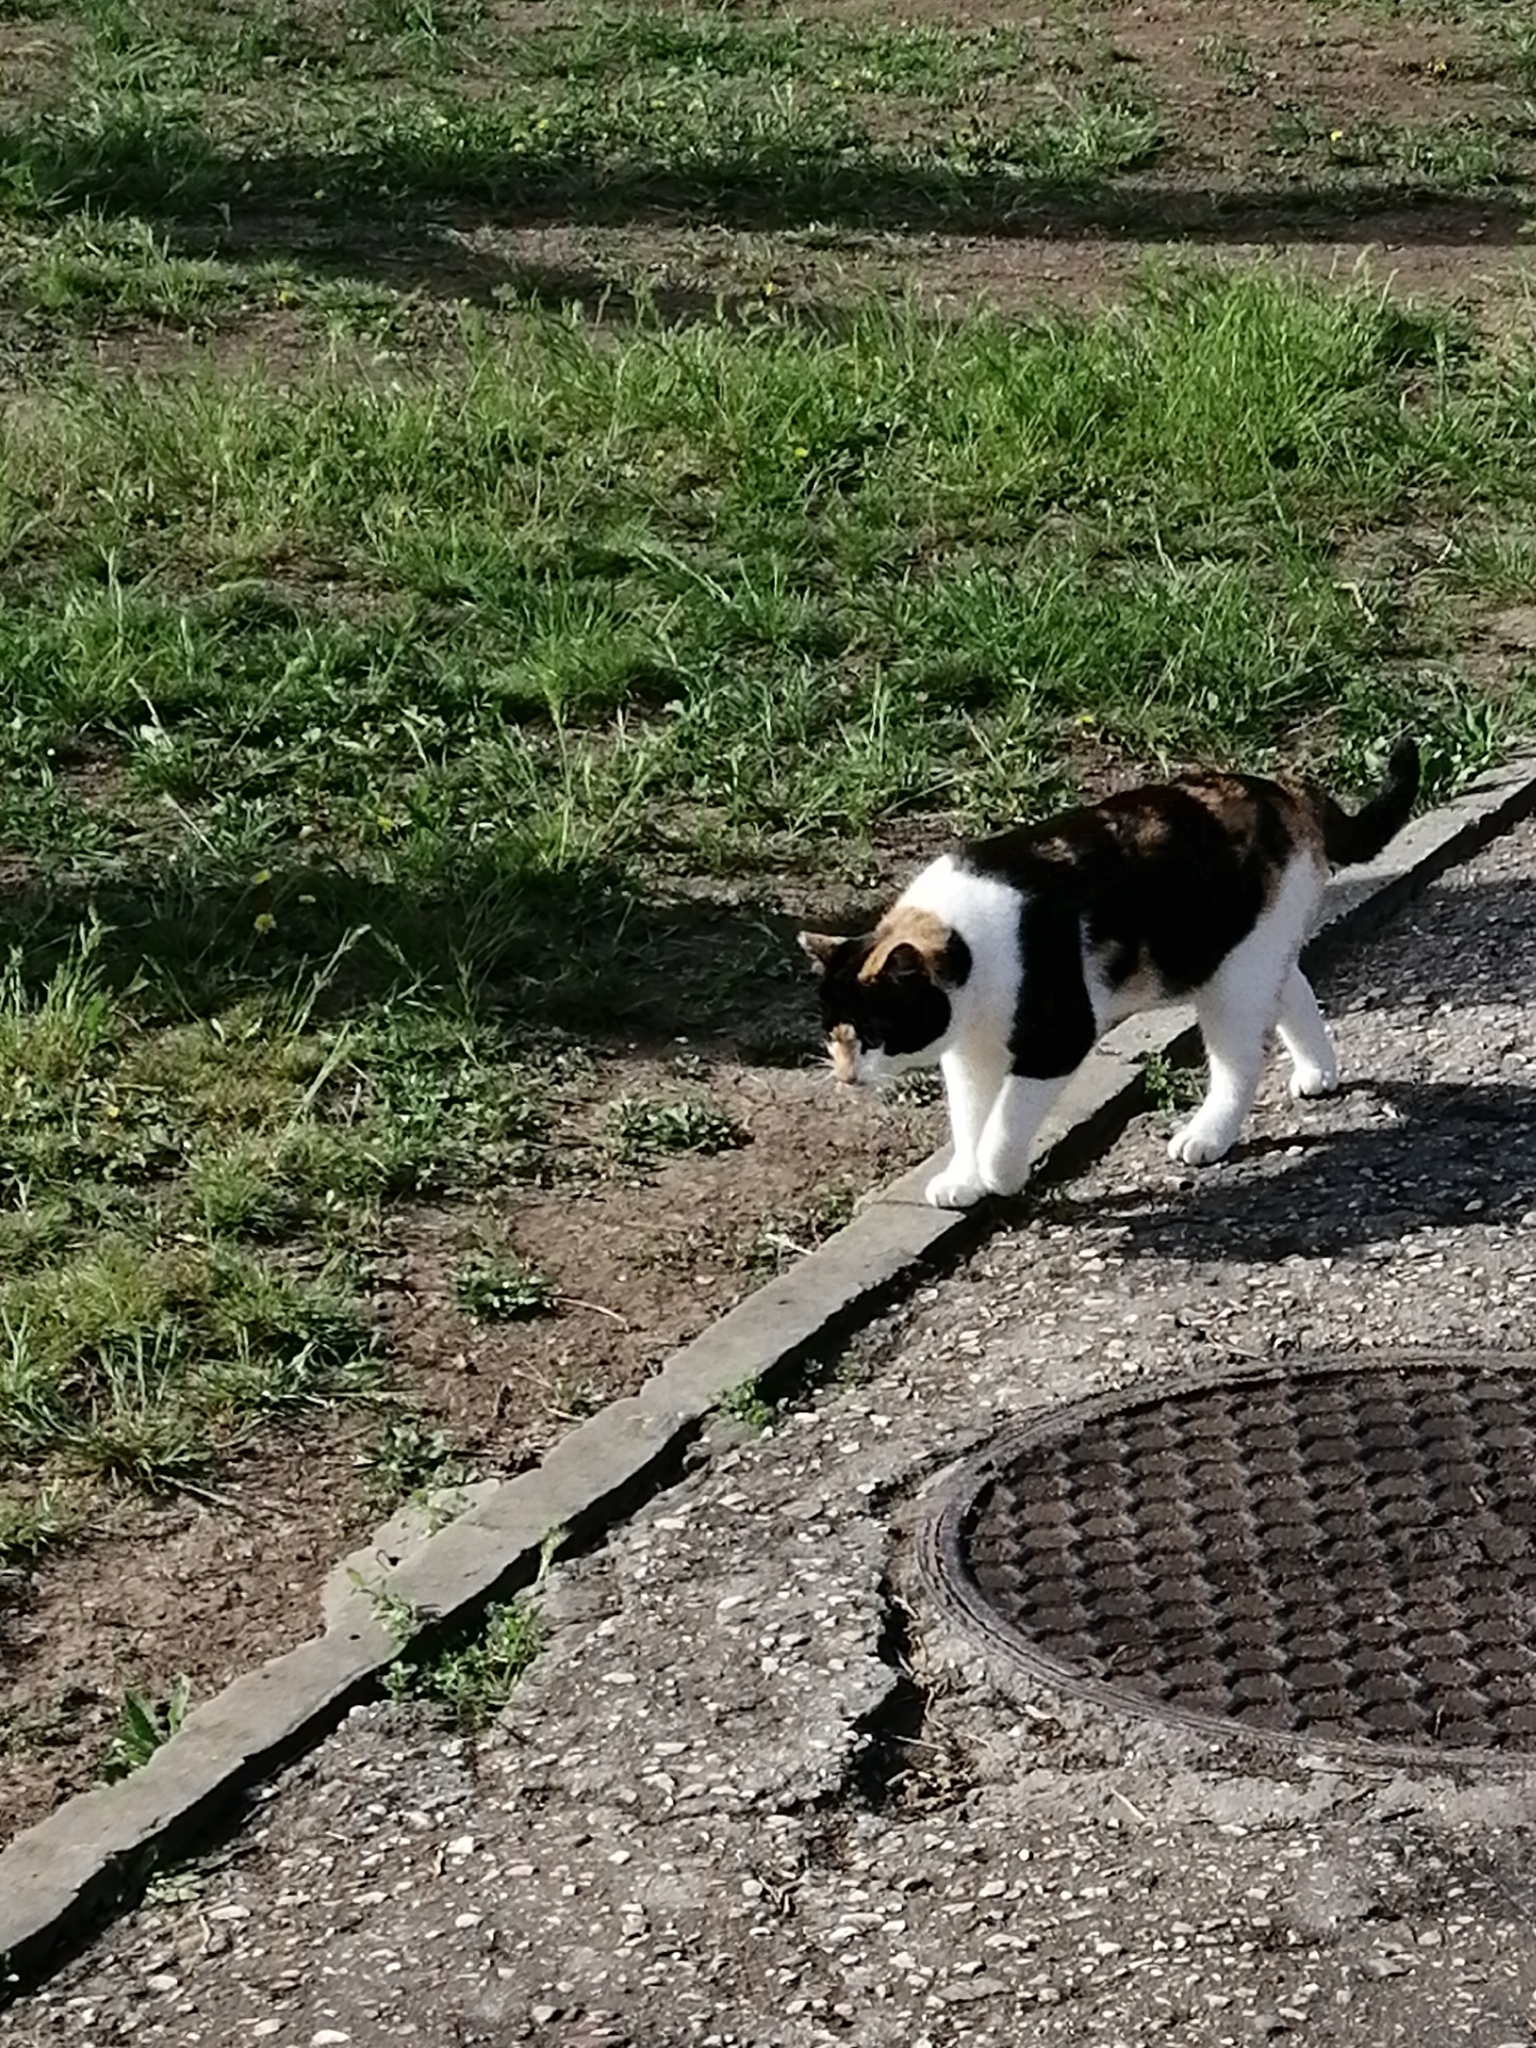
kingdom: Animalia
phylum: Chordata
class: Mammalia
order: Carnivora
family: Felidae
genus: Felis
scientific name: Felis catus
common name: Domestic cat
